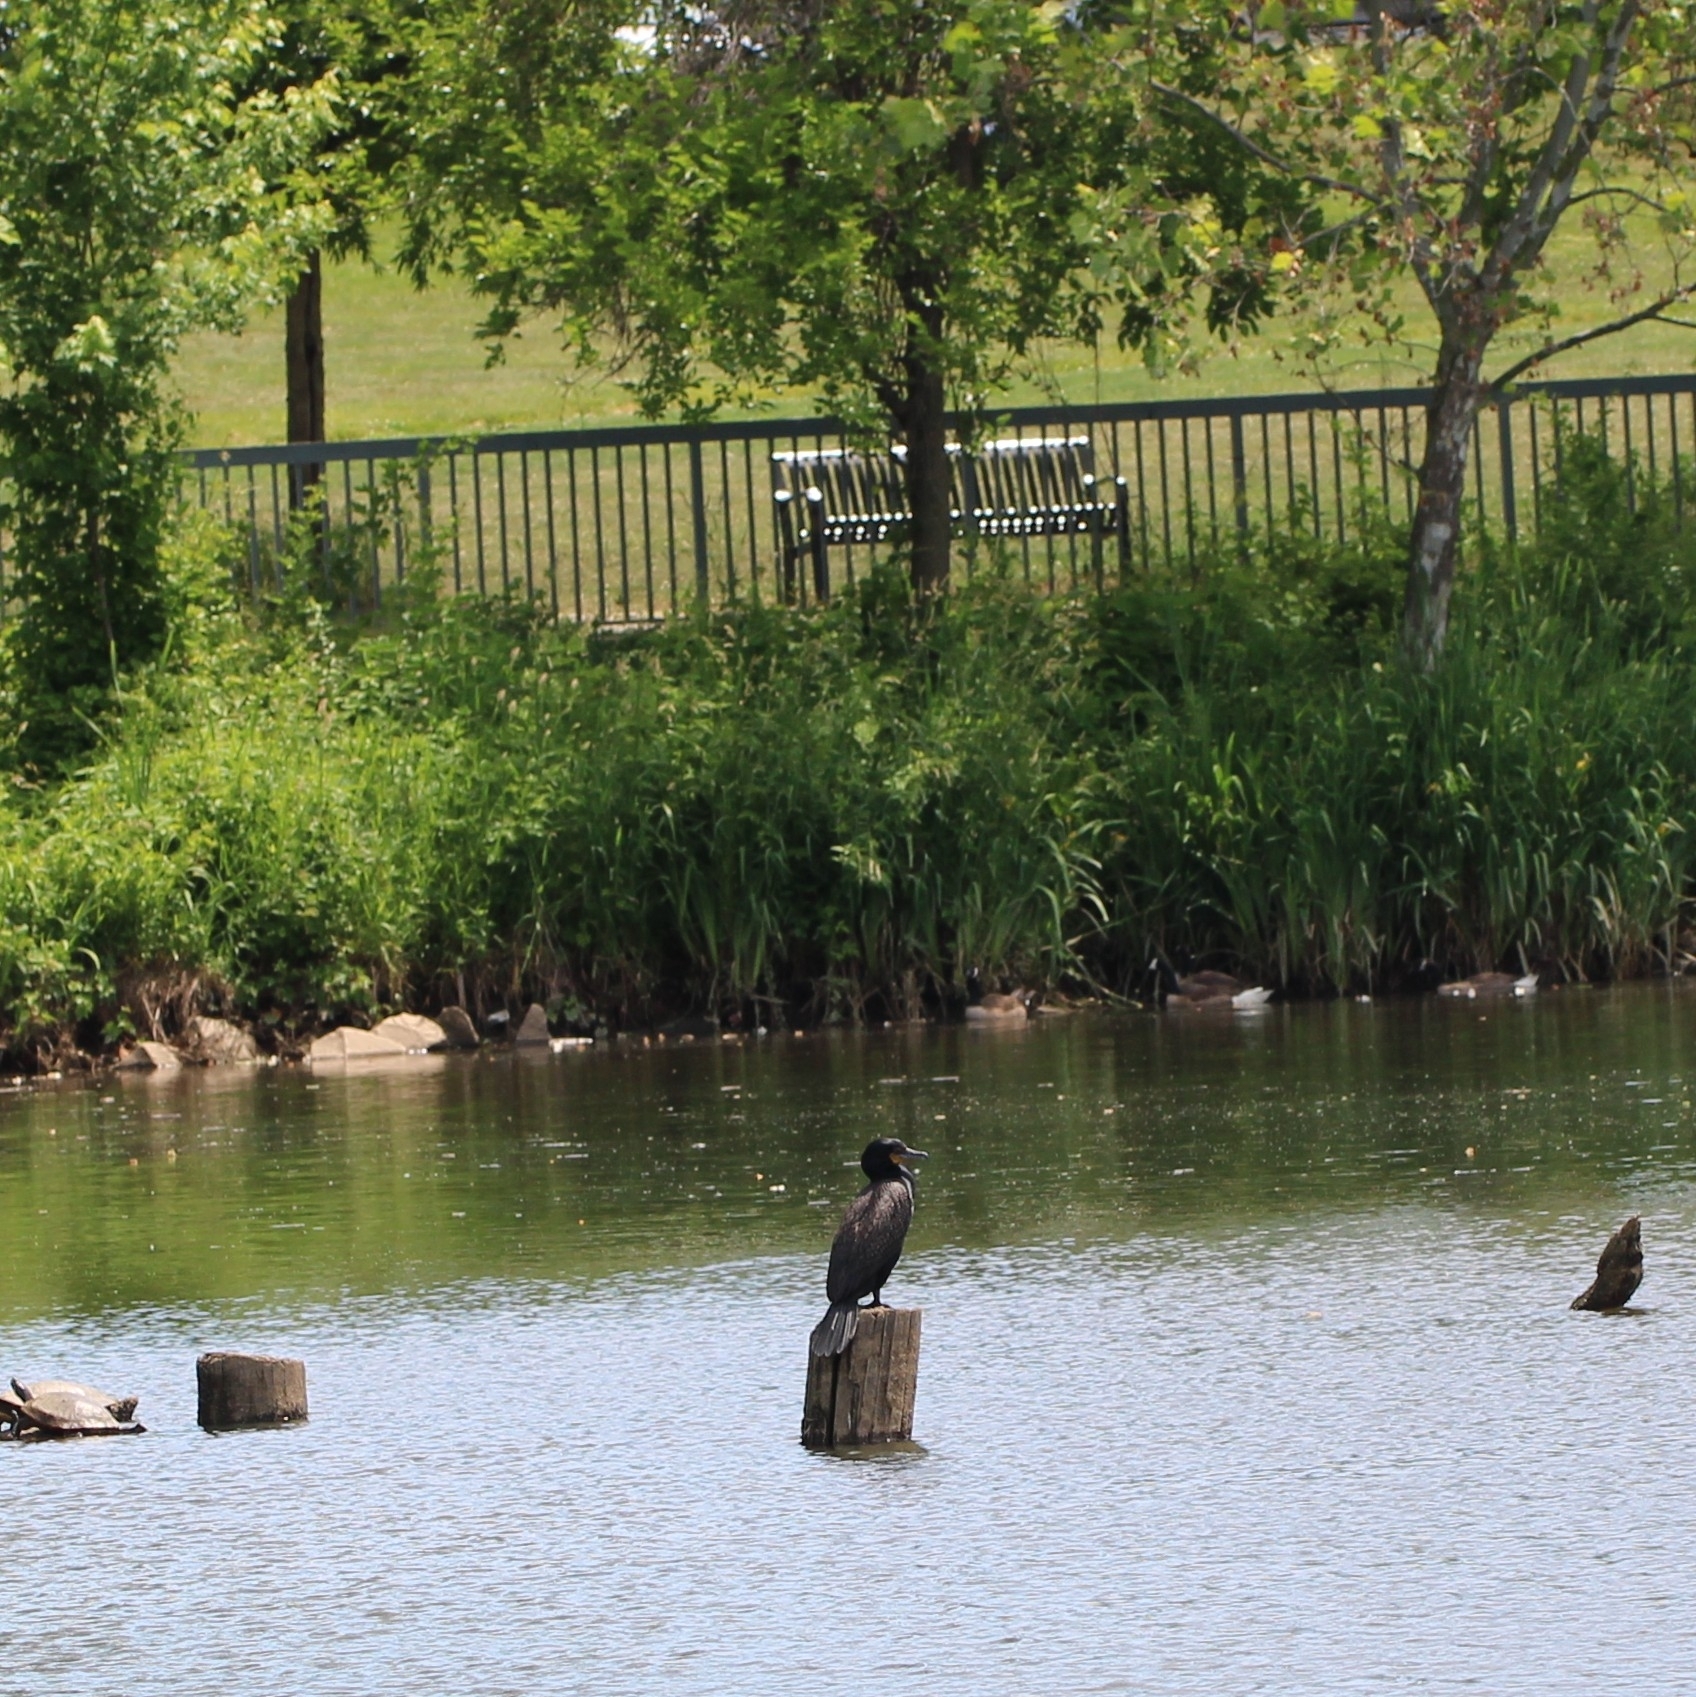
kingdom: Animalia
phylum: Chordata
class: Aves
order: Suliformes
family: Phalacrocoracidae
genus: Phalacrocorax
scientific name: Phalacrocorax auritus
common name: Double-crested cormorant
